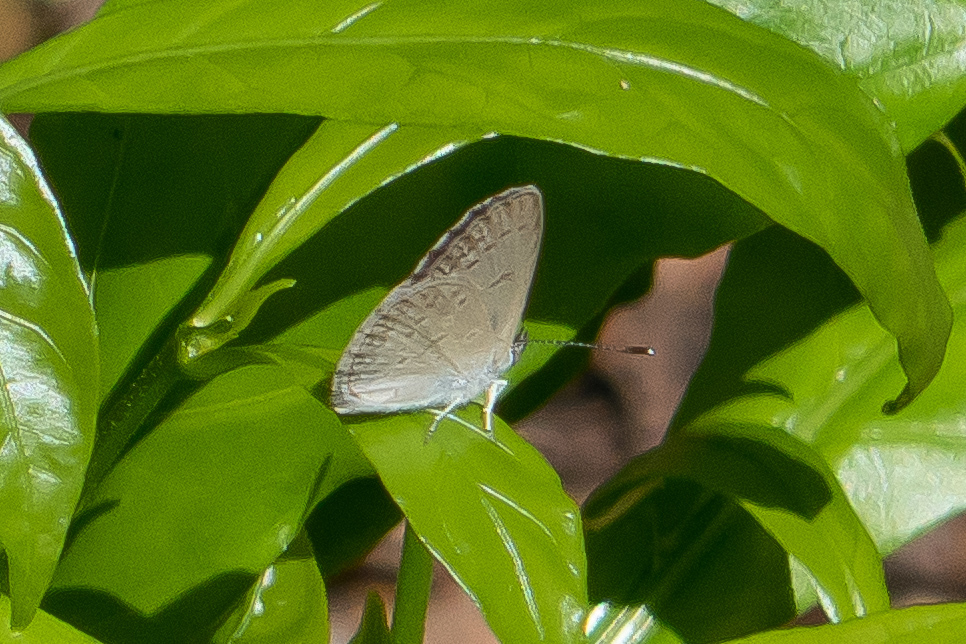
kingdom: Animalia
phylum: Arthropoda
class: Insecta
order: Lepidoptera
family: Lycaenidae
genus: Zizina
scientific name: Zizina otis
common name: Lesser grass blue
